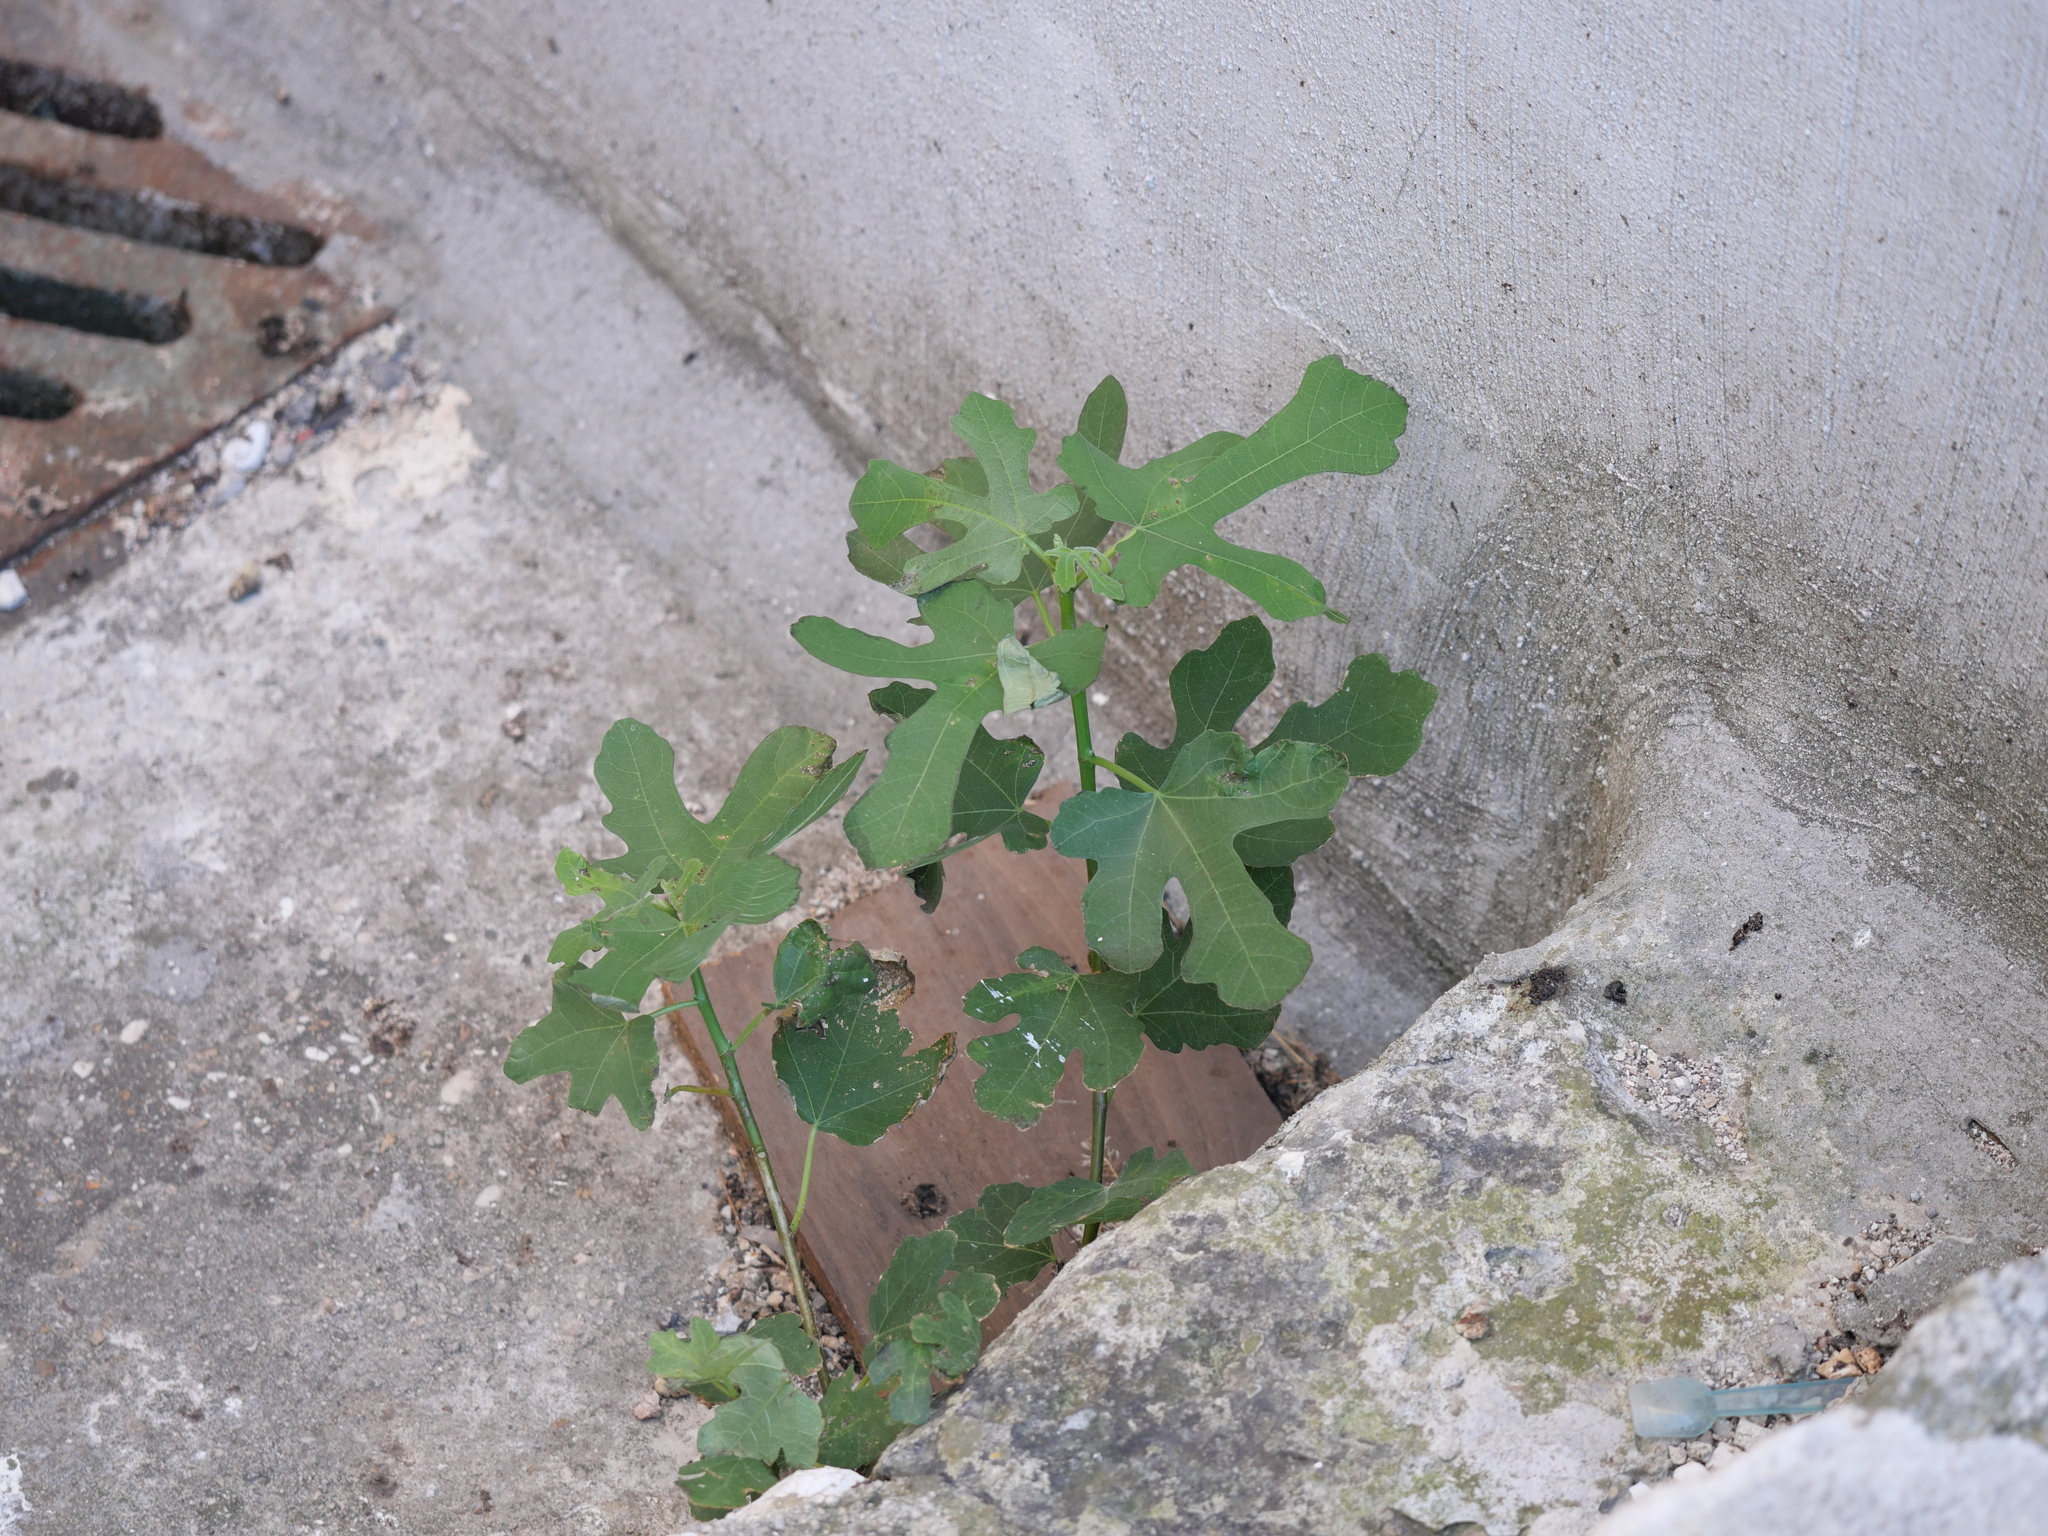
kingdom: Plantae
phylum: Tracheophyta
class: Magnoliopsida
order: Rosales
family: Moraceae
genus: Ficus
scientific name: Ficus carica
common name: Fig
